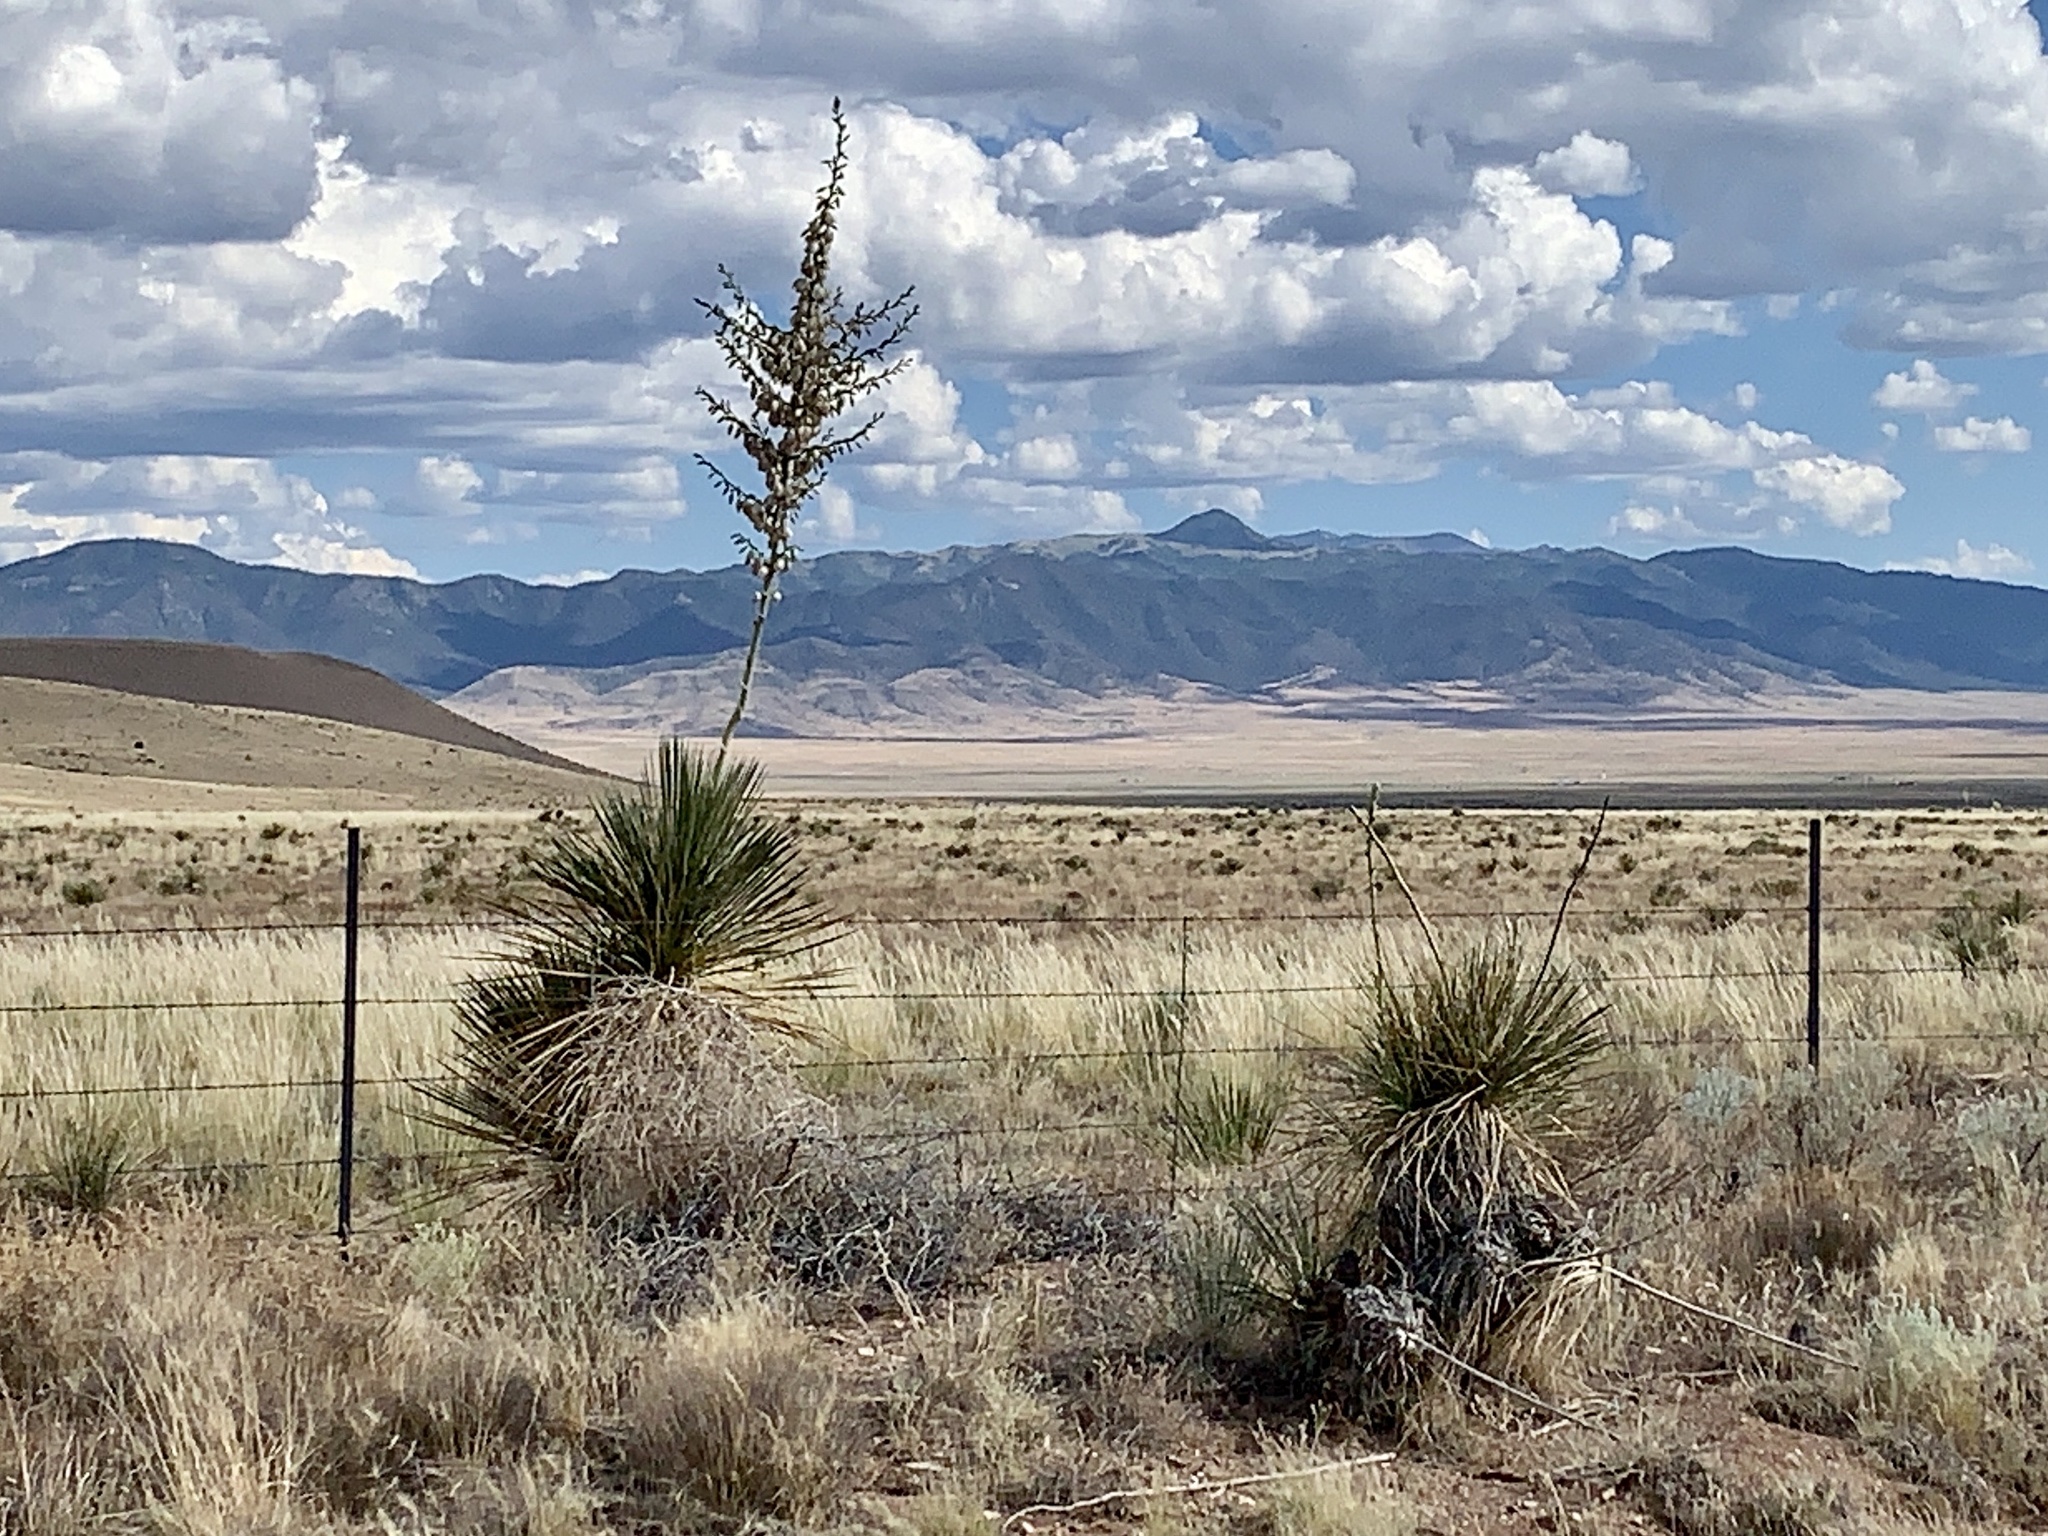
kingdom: Plantae
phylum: Tracheophyta
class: Liliopsida
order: Asparagales
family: Asparagaceae
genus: Yucca
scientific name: Yucca elata
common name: Palmella
